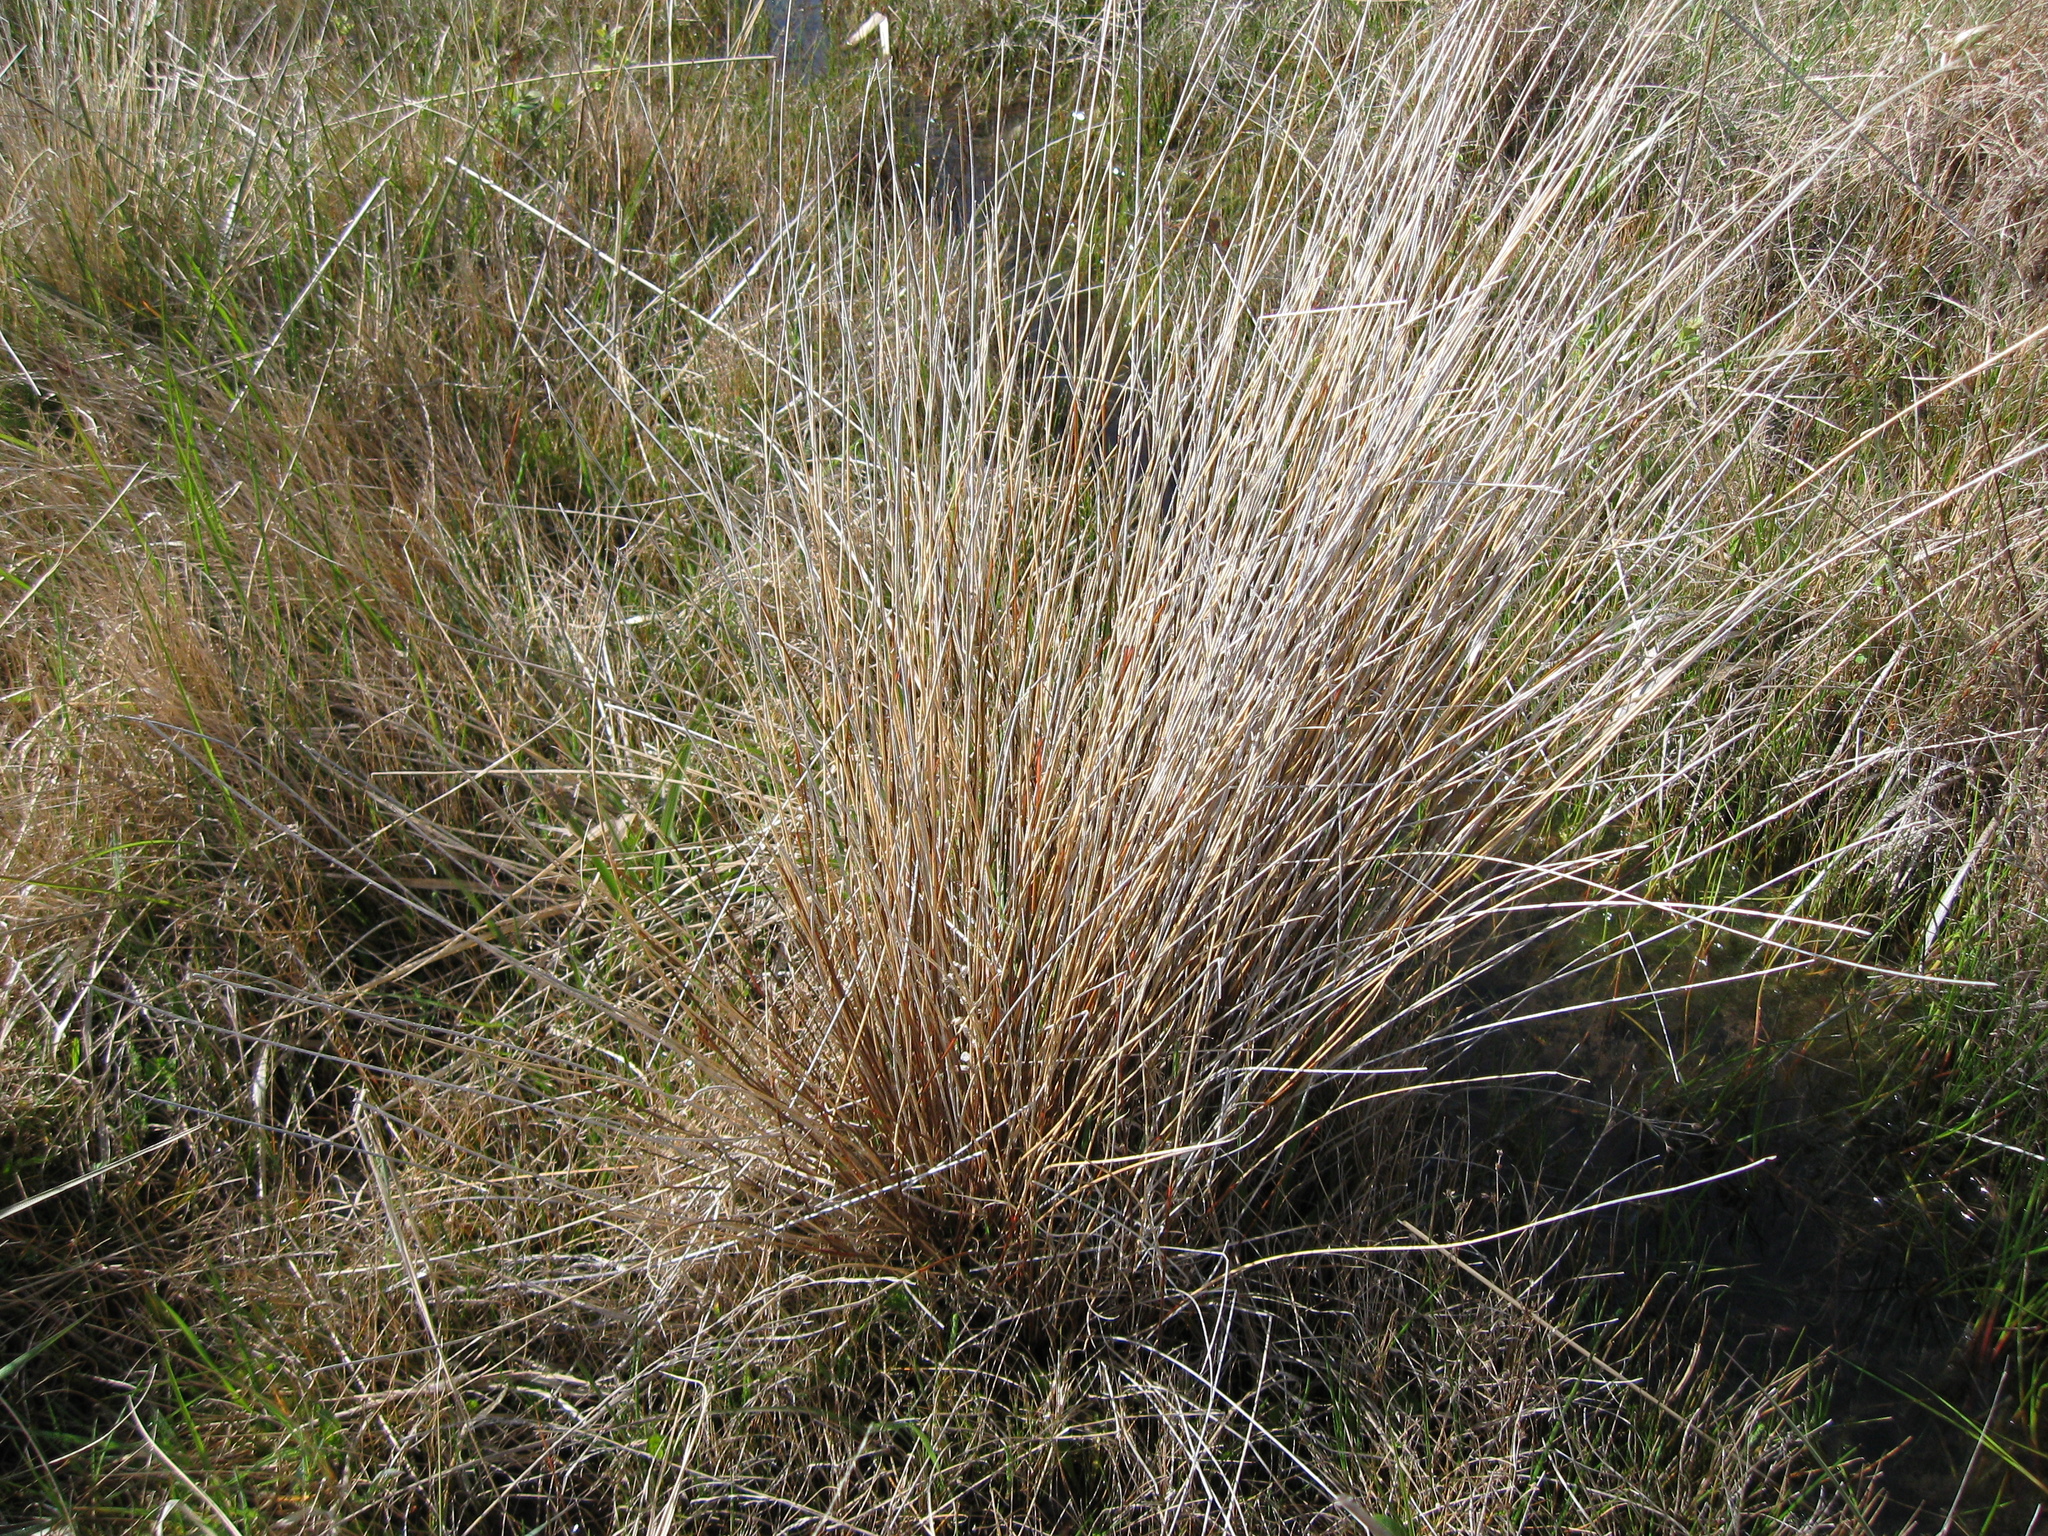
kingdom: Plantae
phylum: Tracheophyta
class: Liliopsida
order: Poales
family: Cyperaceae
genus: Schoenus
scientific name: Schoenus pauciflorus
